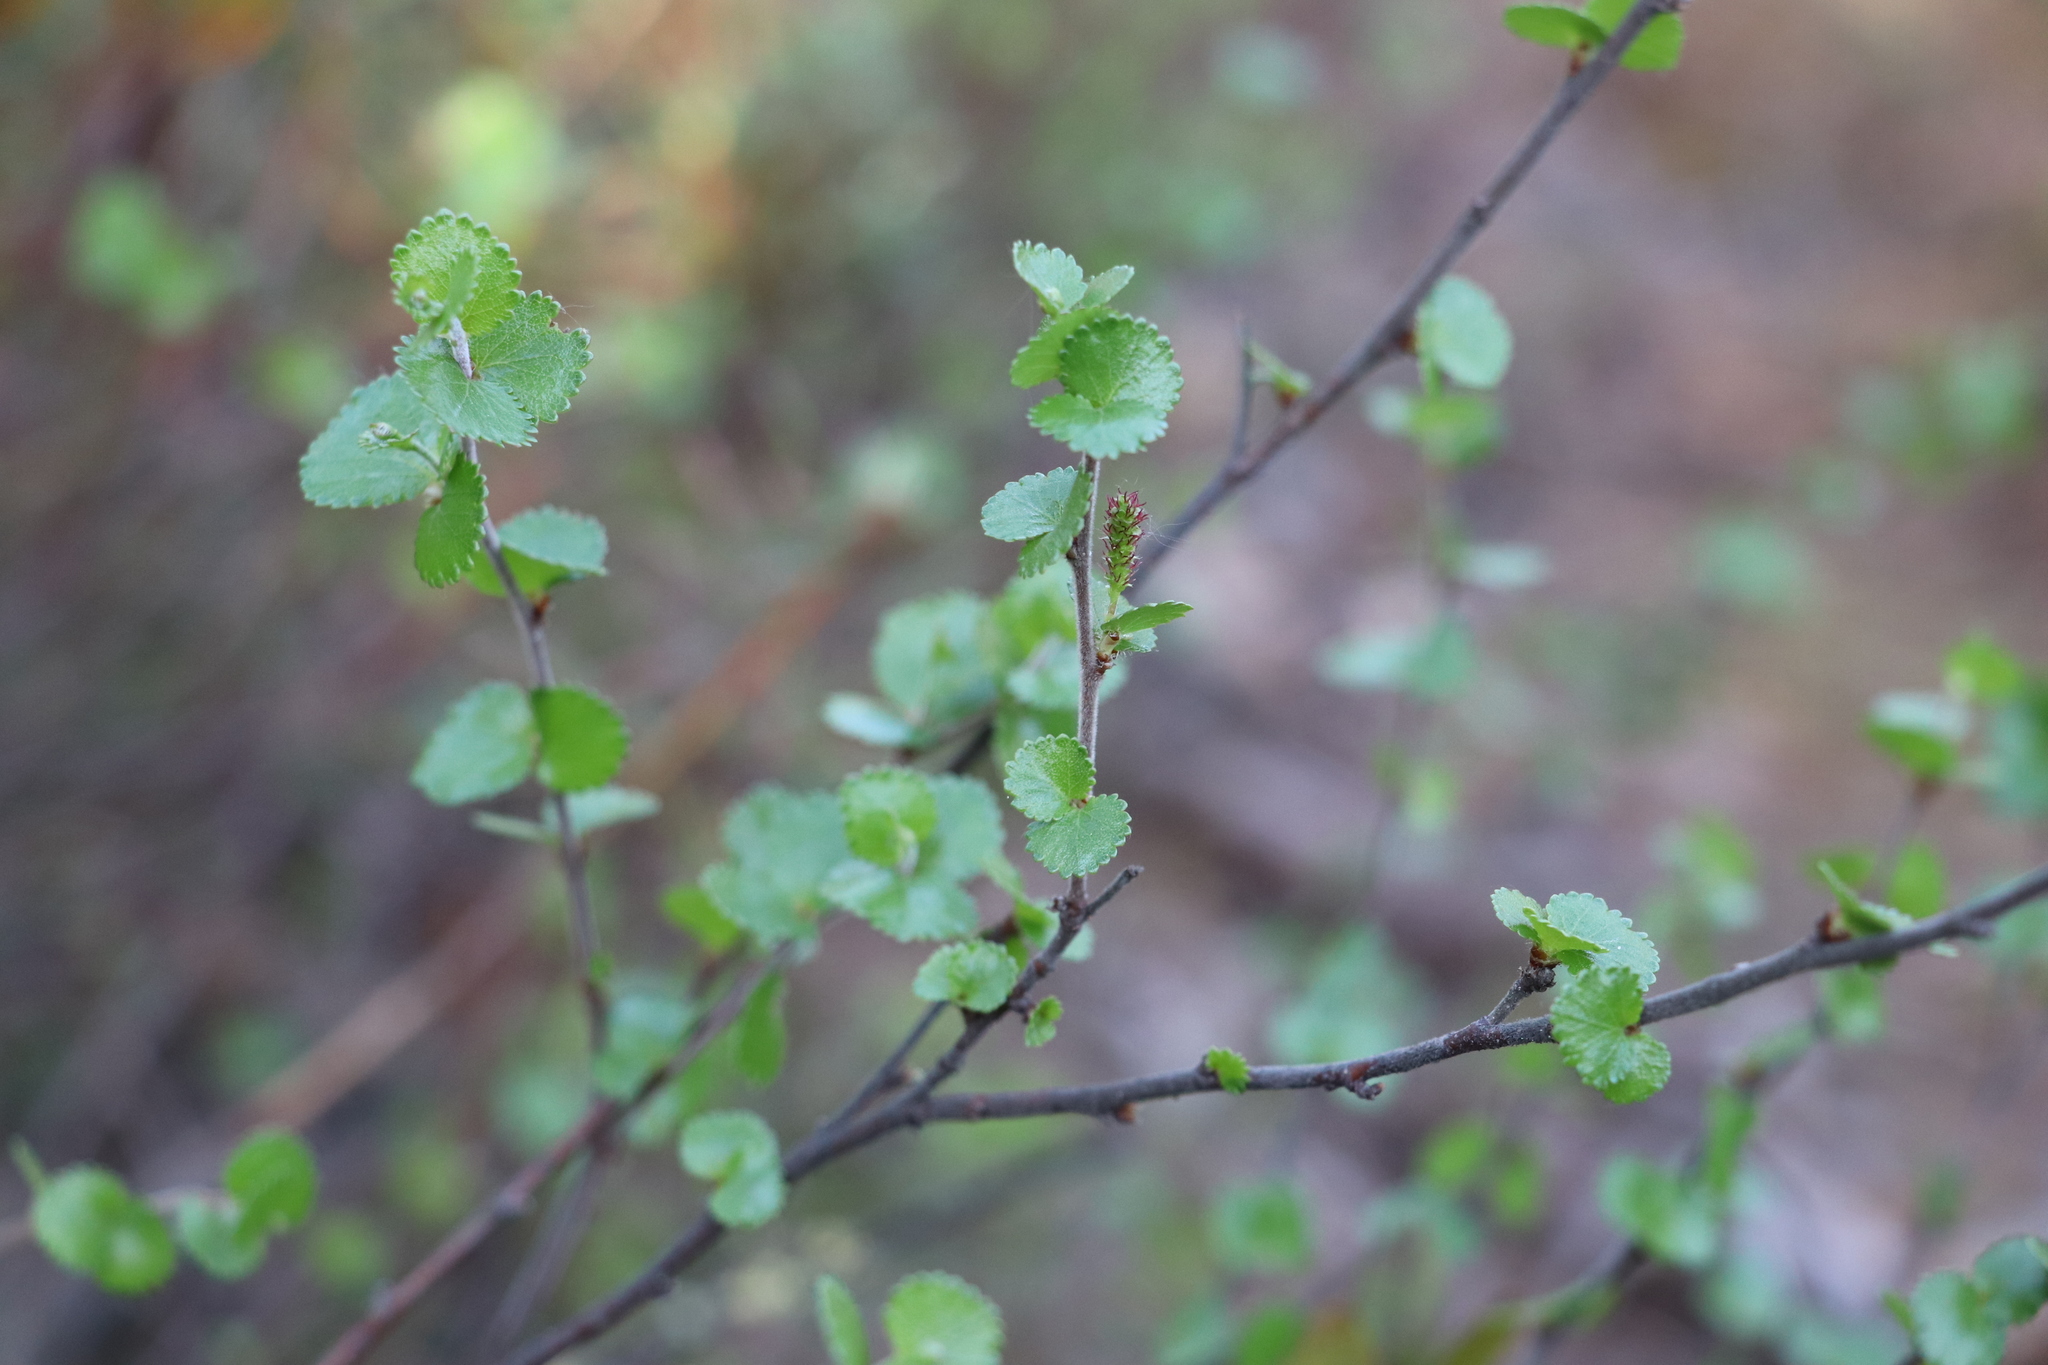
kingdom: Plantae
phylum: Tracheophyta
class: Magnoliopsida
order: Fagales
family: Betulaceae
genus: Betula
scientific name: Betula nana
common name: Arctic dwarf birch
